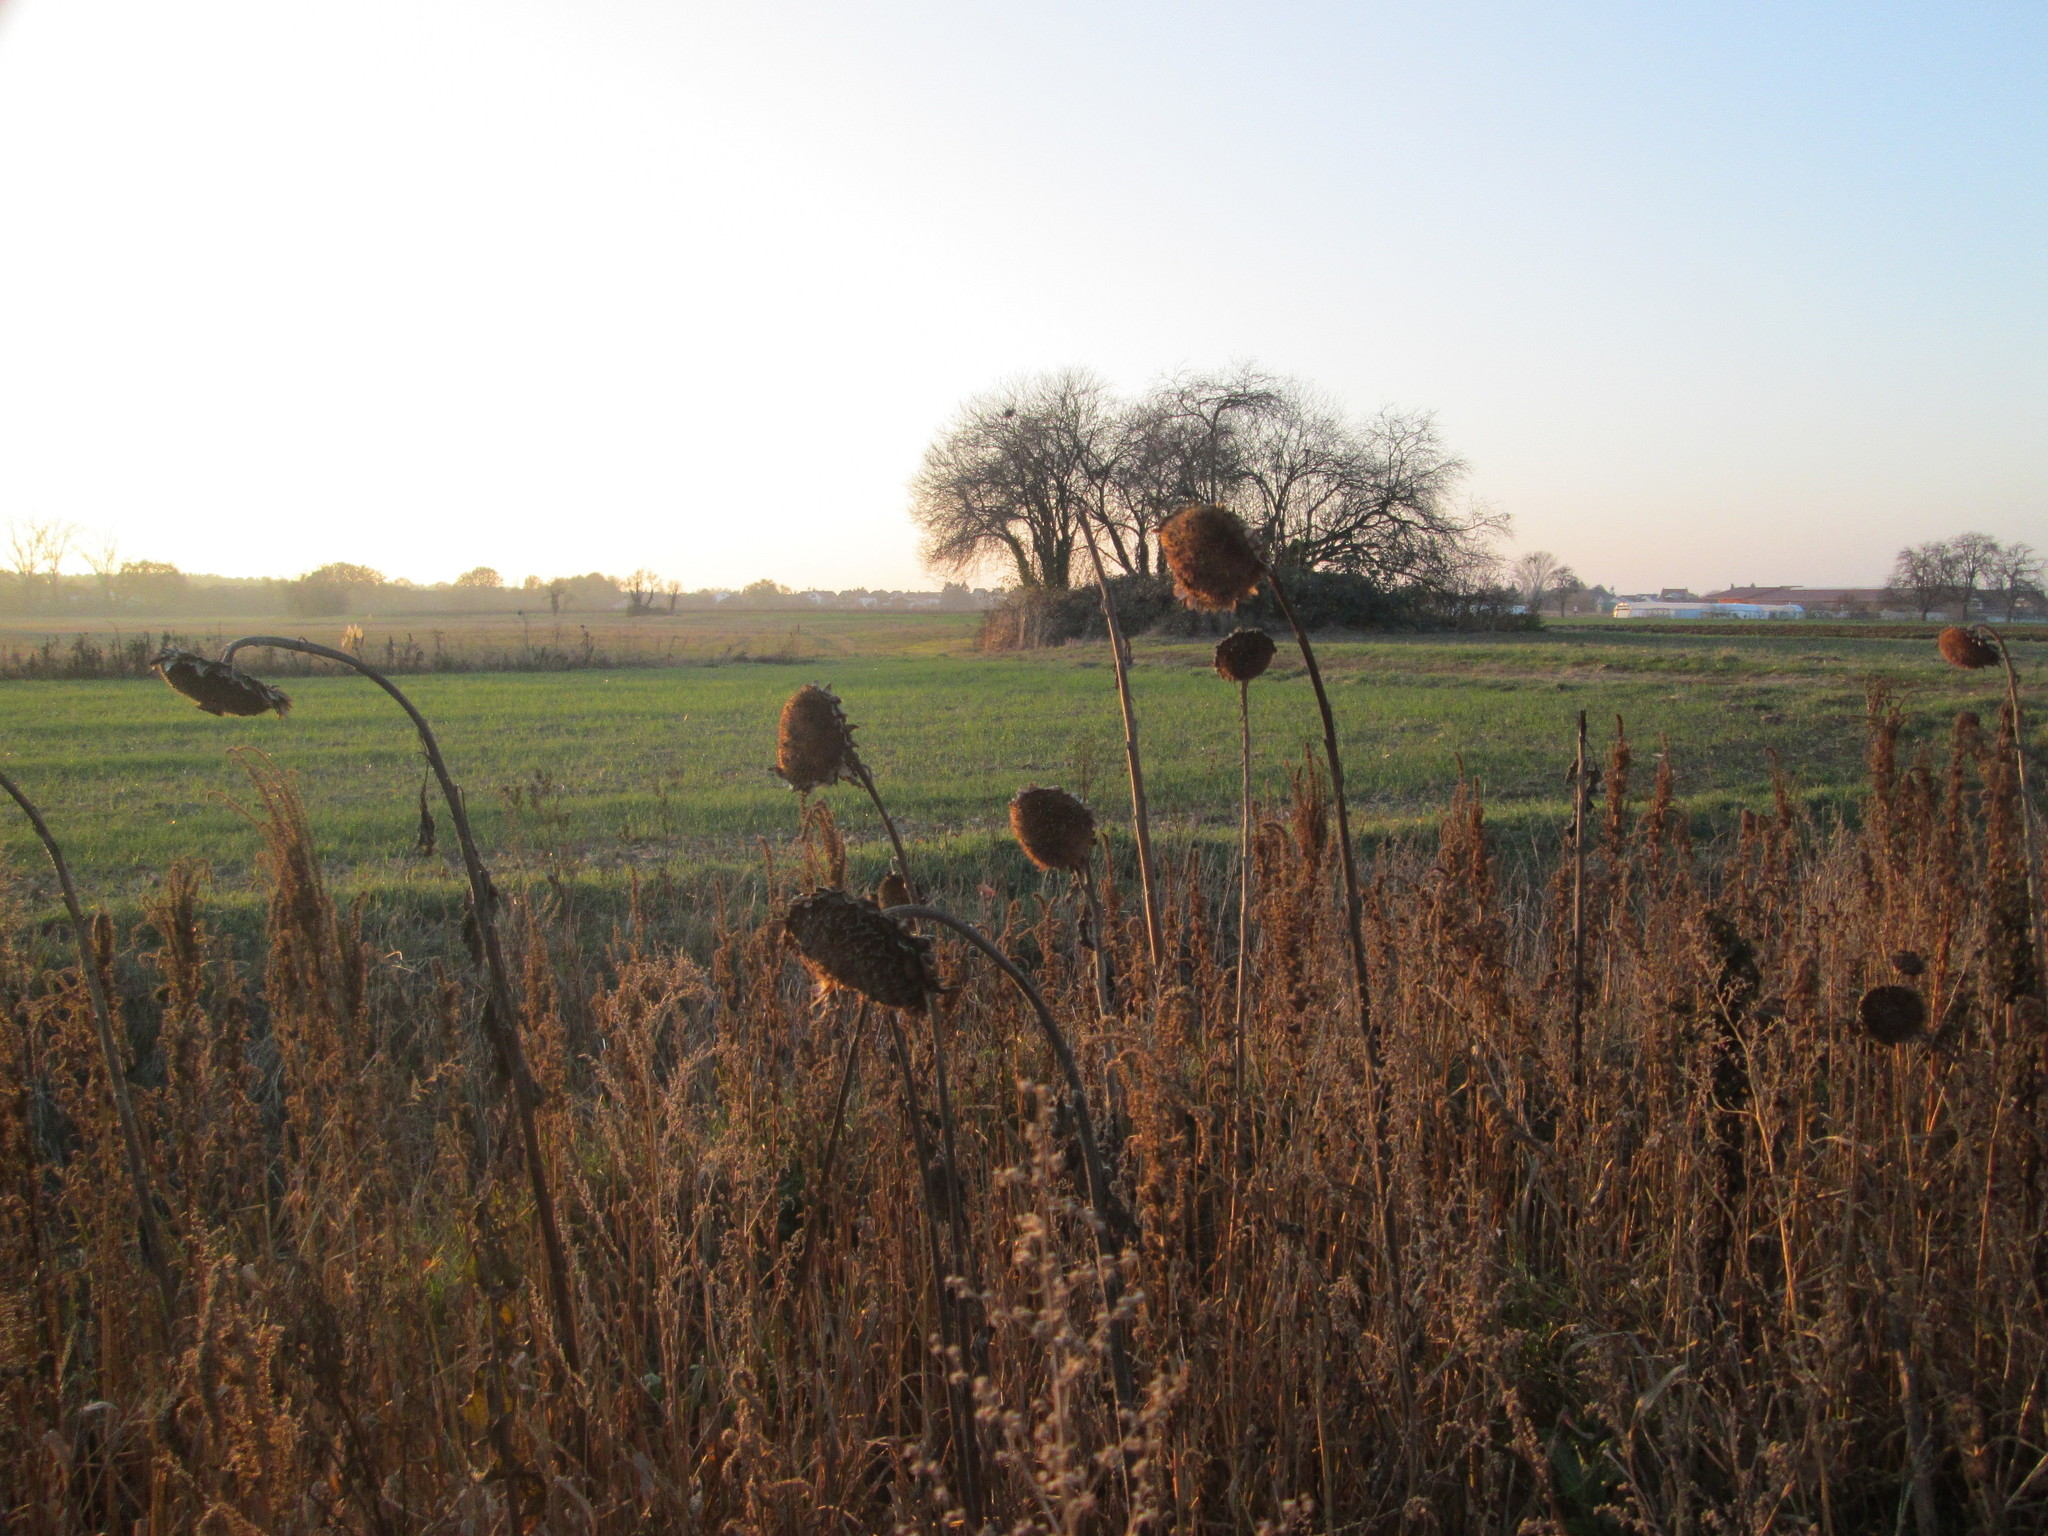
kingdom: Plantae
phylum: Tracheophyta
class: Magnoliopsida
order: Asterales
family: Asteraceae
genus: Helianthus
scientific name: Helianthus annuus
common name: Sunflower
